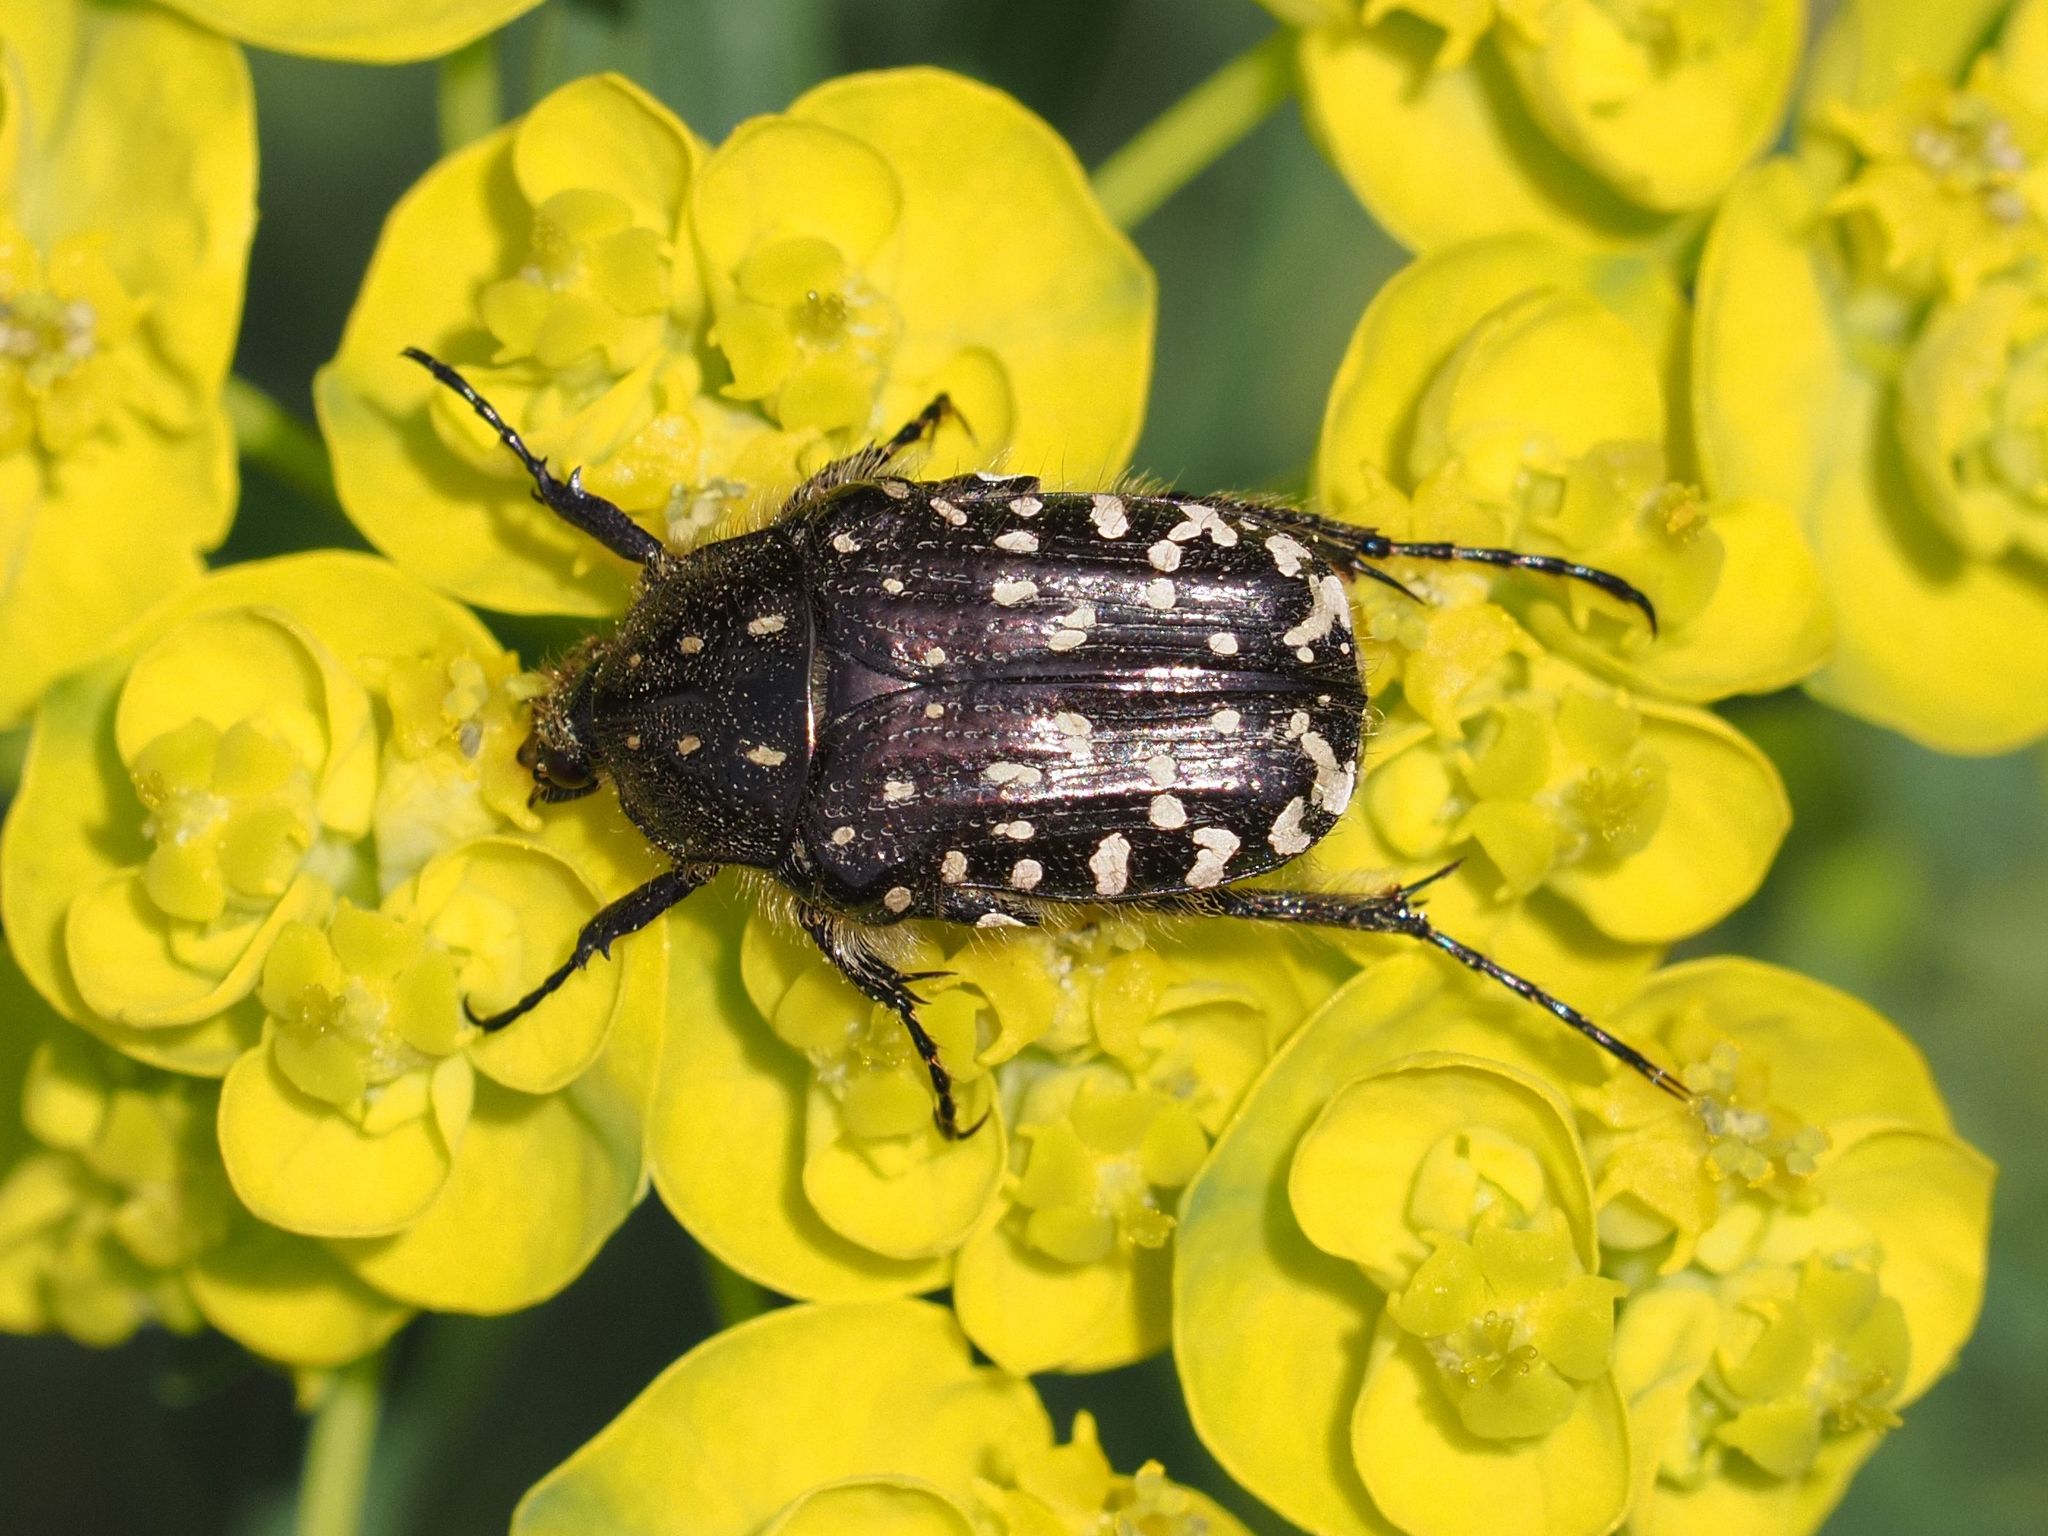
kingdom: Animalia
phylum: Arthropoda
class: Insecta
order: Coleoptera
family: Scarabaeidae
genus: Oxythyrea
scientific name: Oxythyrea funesta
